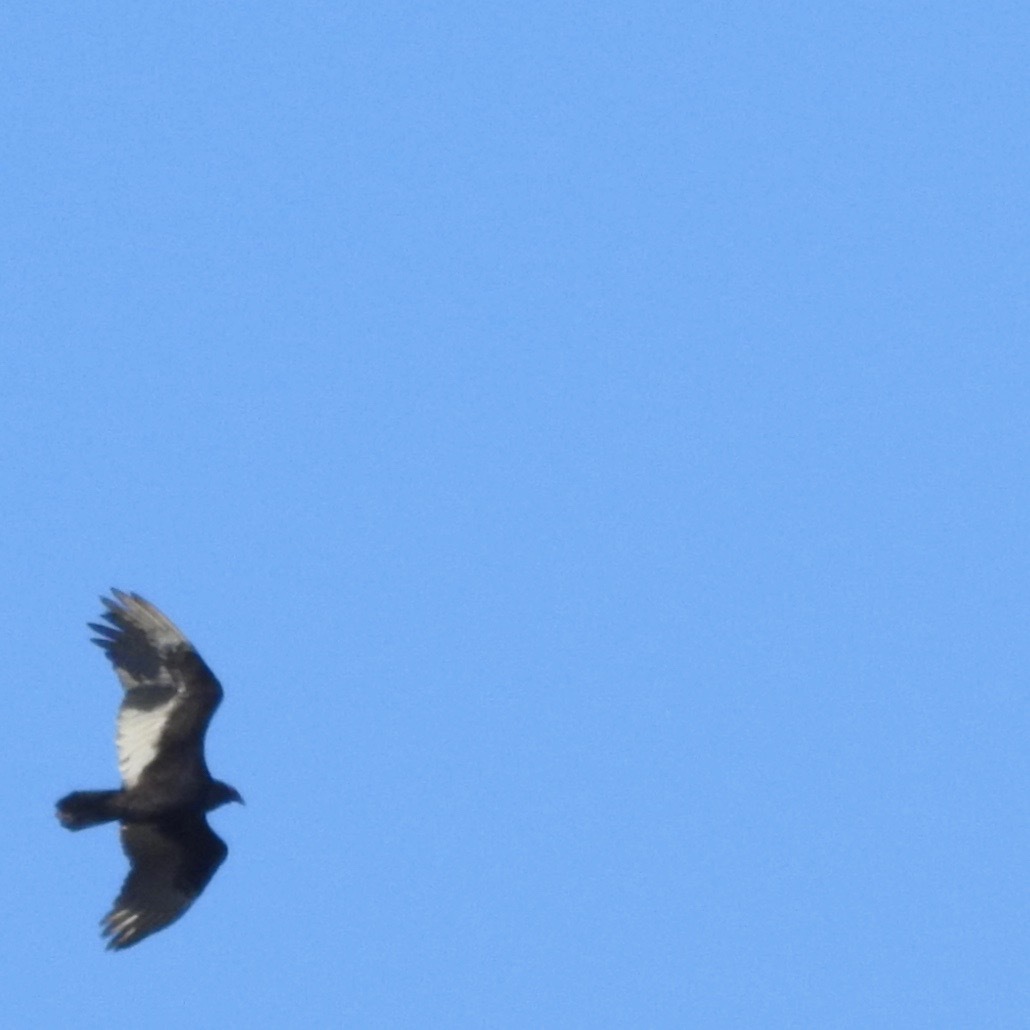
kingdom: Animalia
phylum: Chordata
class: Aves
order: Accipitriformes
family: Cathartidae
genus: Cathartes
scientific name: Cathartes aura
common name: Turkey vulture
